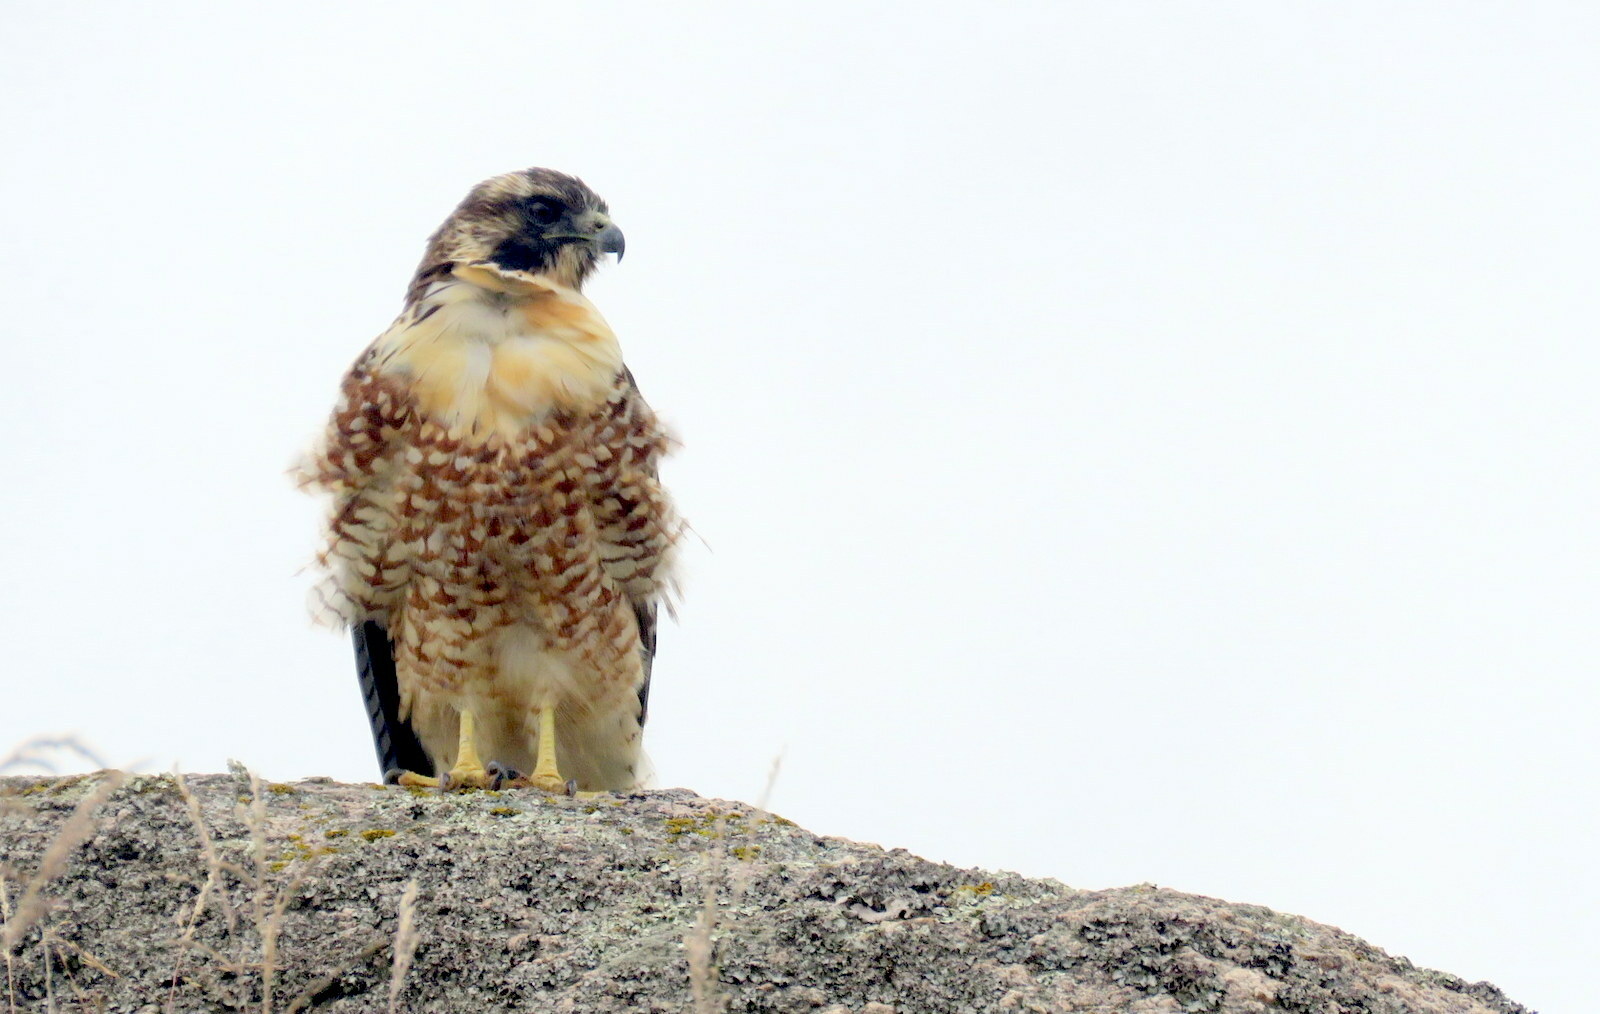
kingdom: Animalia
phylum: Chordata
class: Aves
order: Accipitriformes
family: Accipitridae
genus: Buteo
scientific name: Buteo polyosoma
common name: Variable hawk
